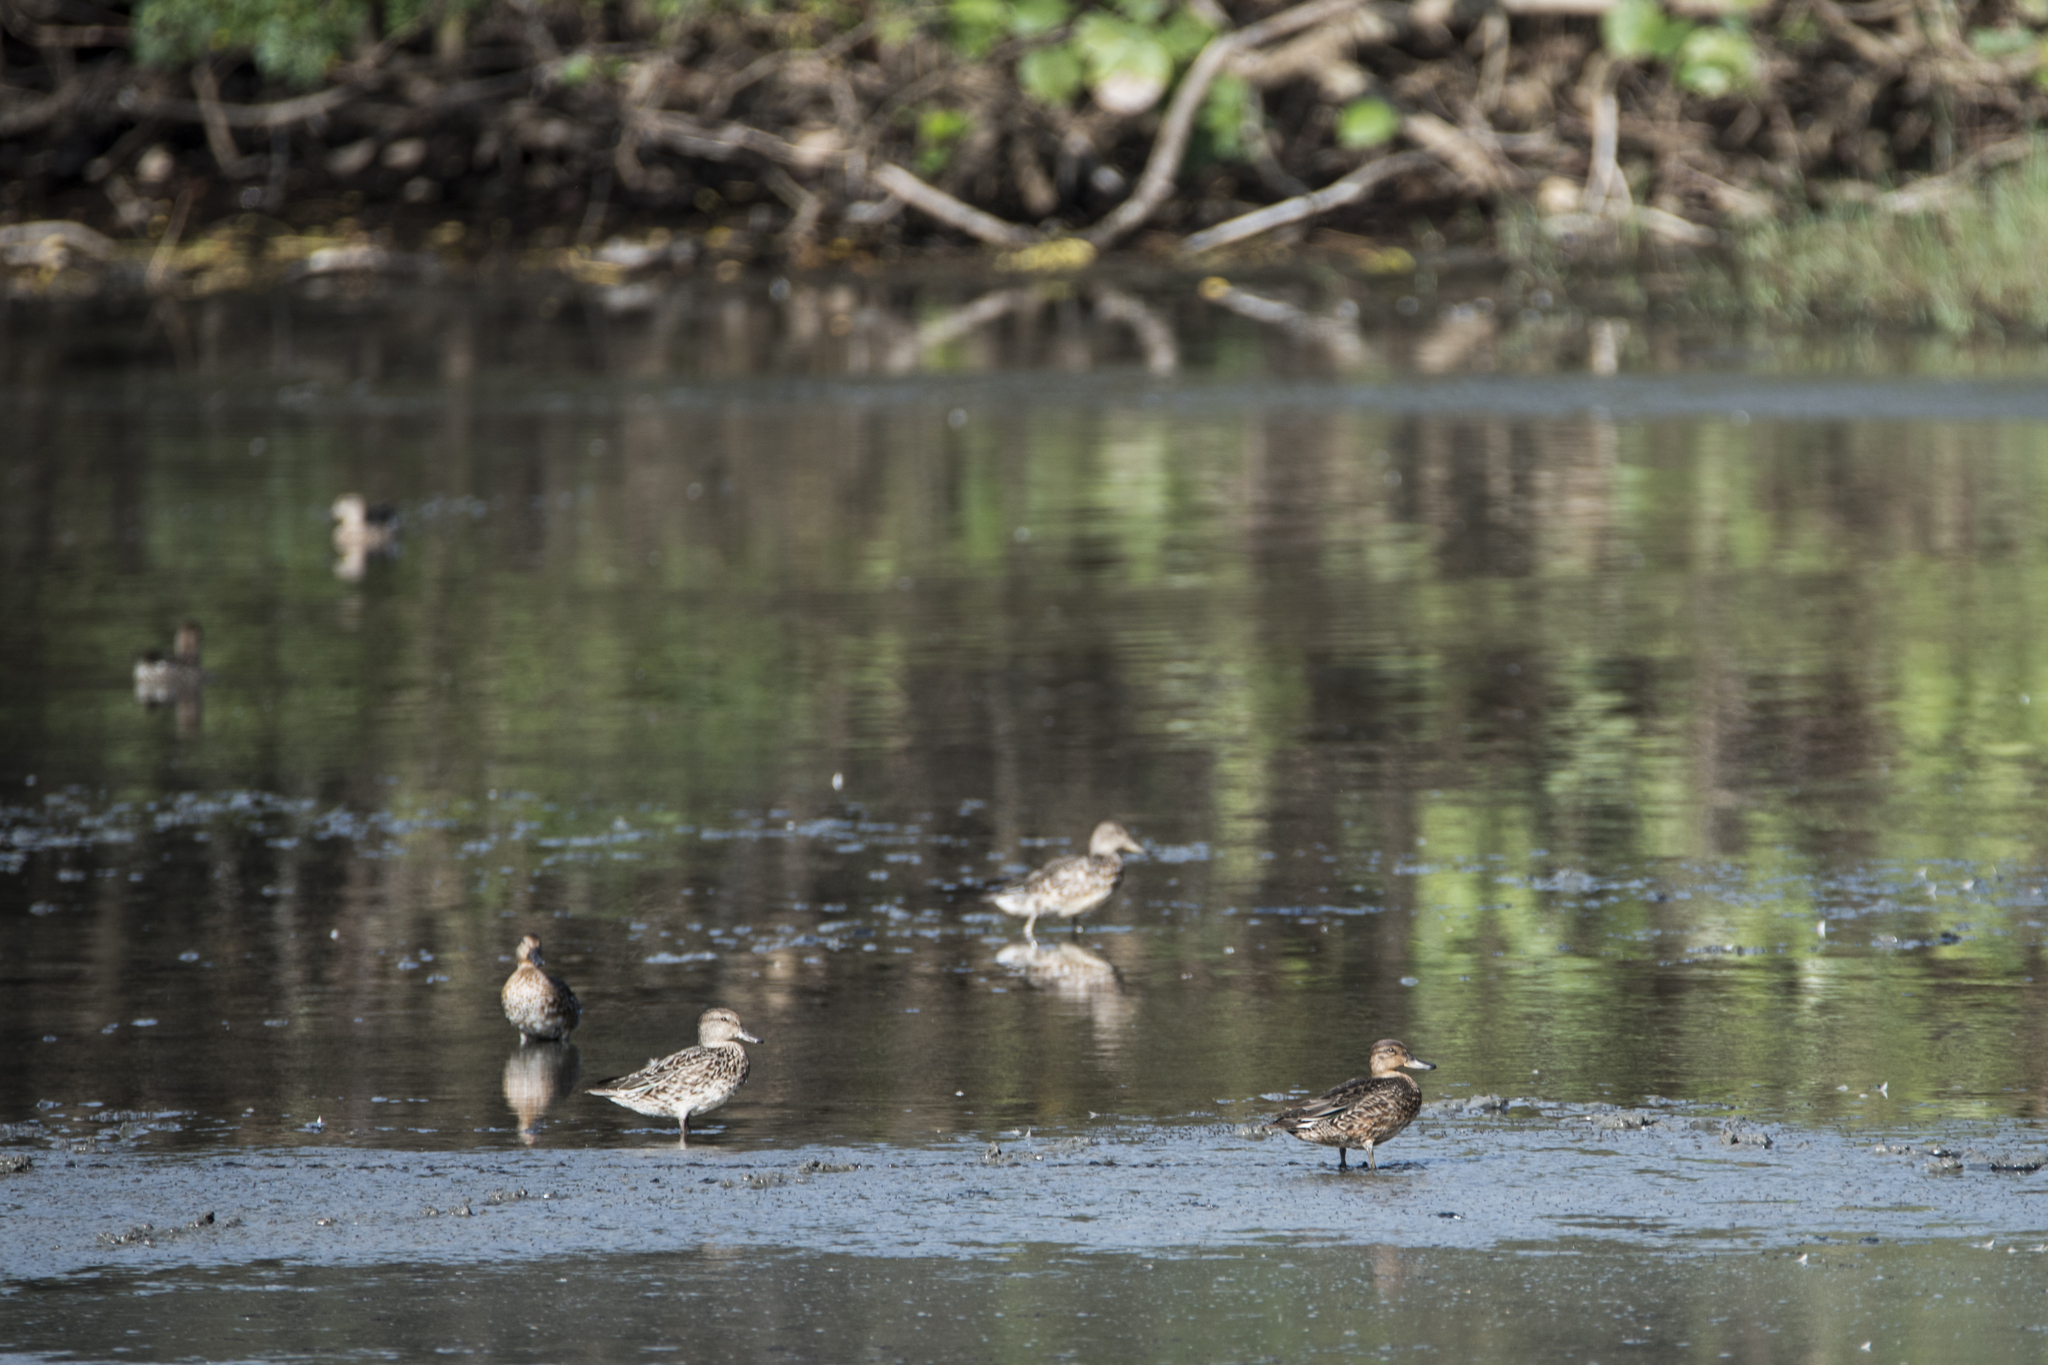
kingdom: Animalia
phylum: Chordata
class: Aves
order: Anseriformes
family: Anatidae
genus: Anas
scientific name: Anas crecca
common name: Eurasian teal
